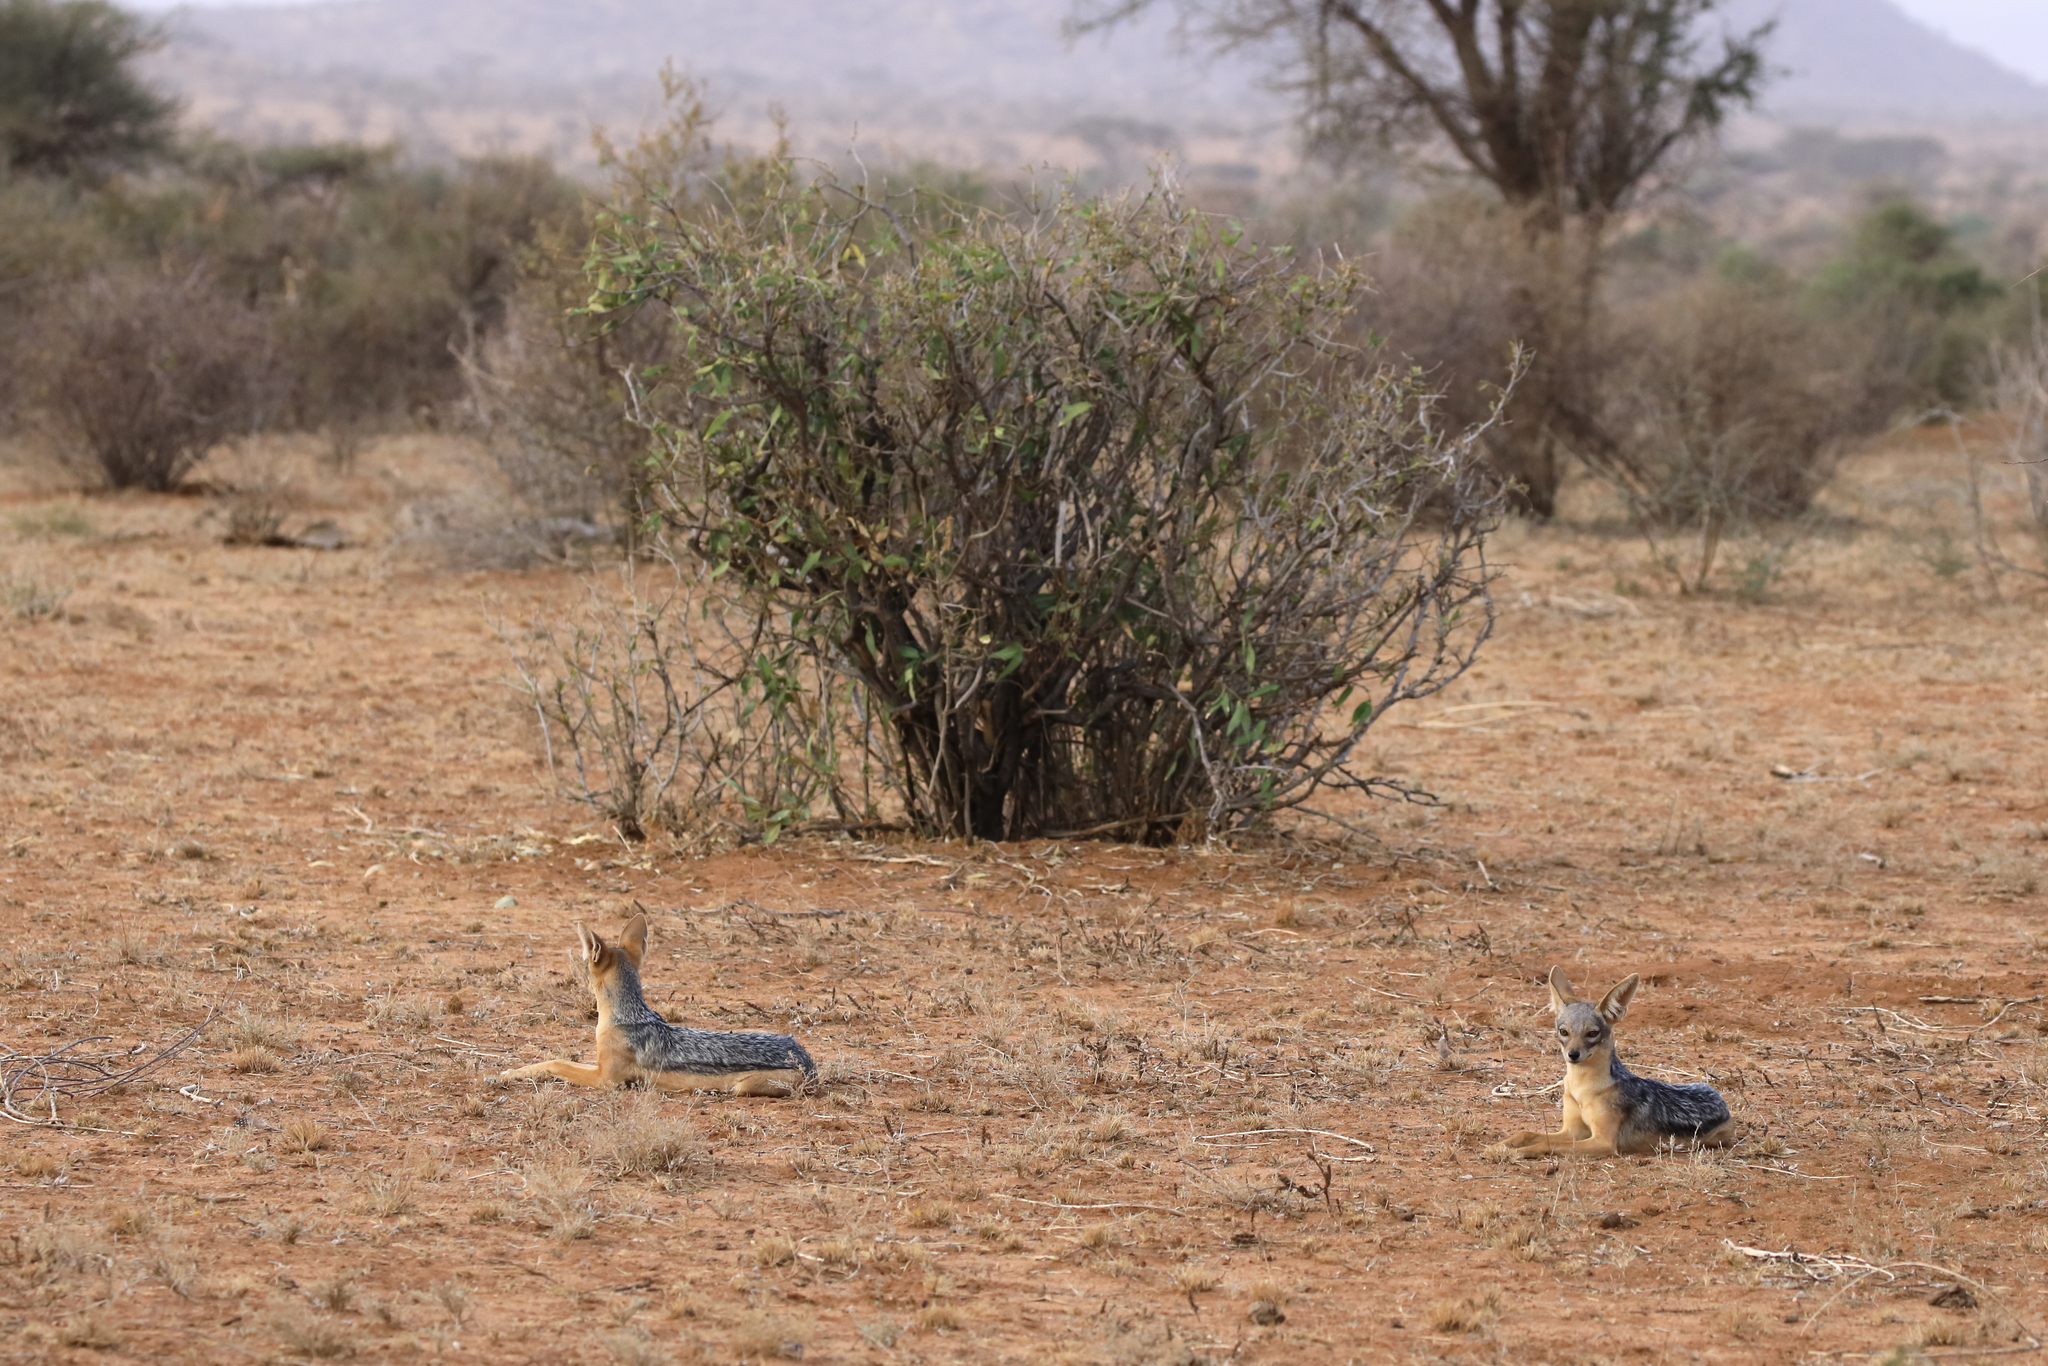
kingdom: Animalia
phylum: Chordata
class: Mammalia
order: Carnivora
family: Canidae
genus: Lupulella
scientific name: Lupulella
